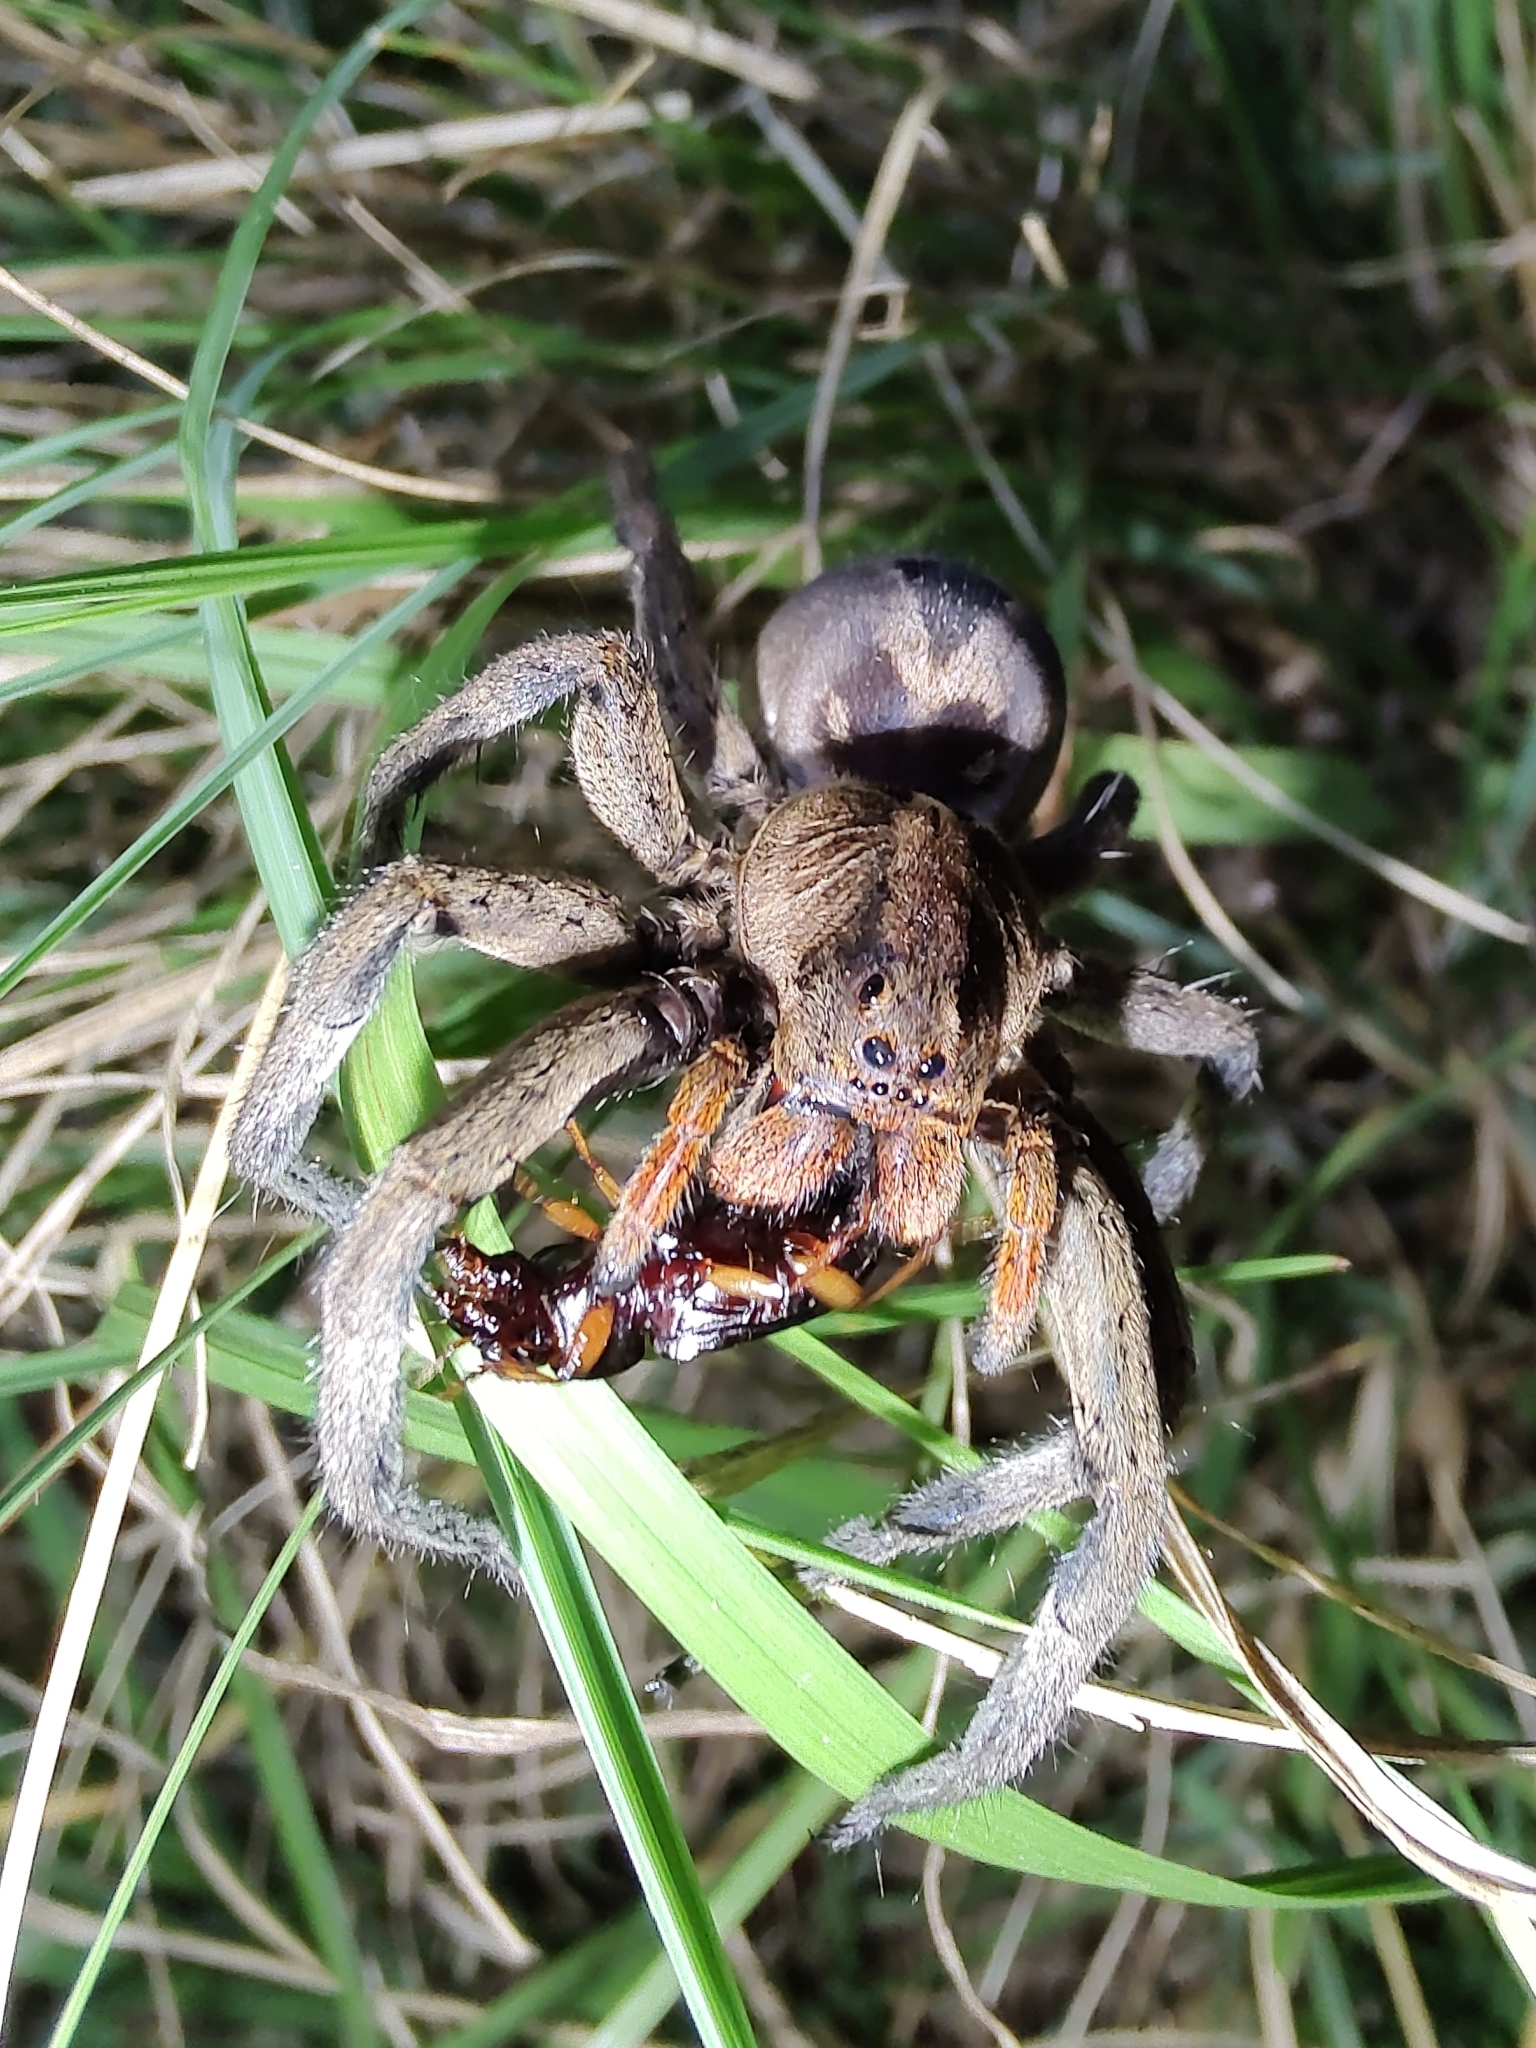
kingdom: Animalia
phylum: Arthropoda
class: Arachnida
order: Araneae
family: Lycosidae
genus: Lycosa
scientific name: Lycosa erythrognatha
